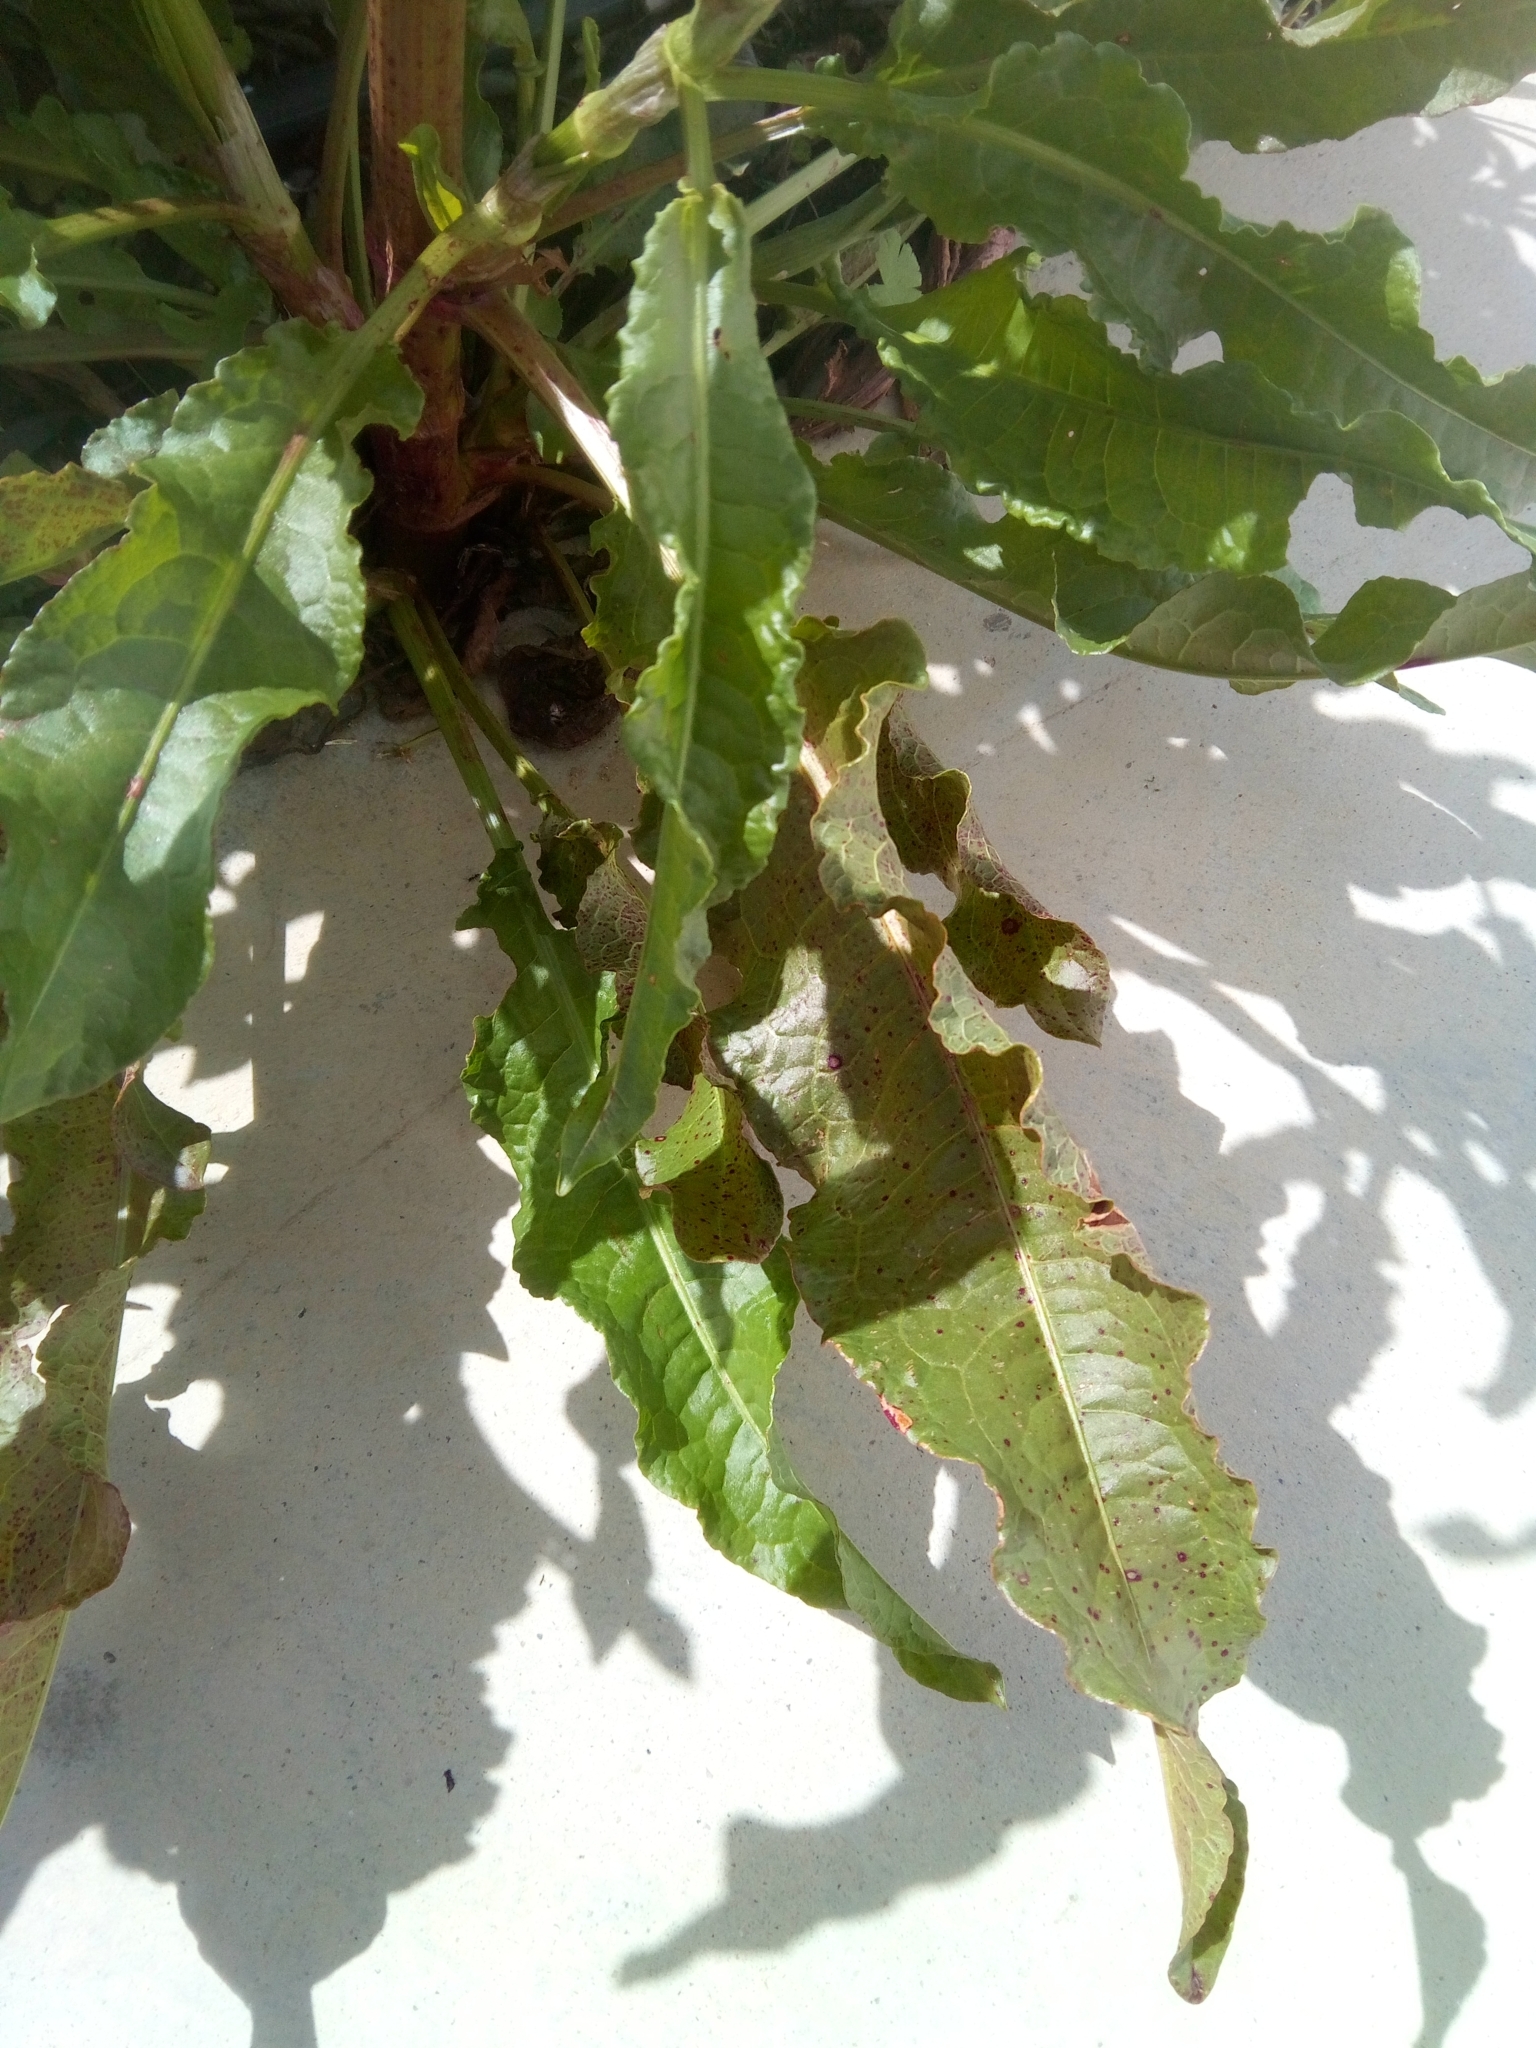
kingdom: Plantae
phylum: Tracheophyta
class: Magnoliopsida
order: Caryophyllales
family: Polygonaceae
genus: Rumex
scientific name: Rumex crispus
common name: Curled dock
